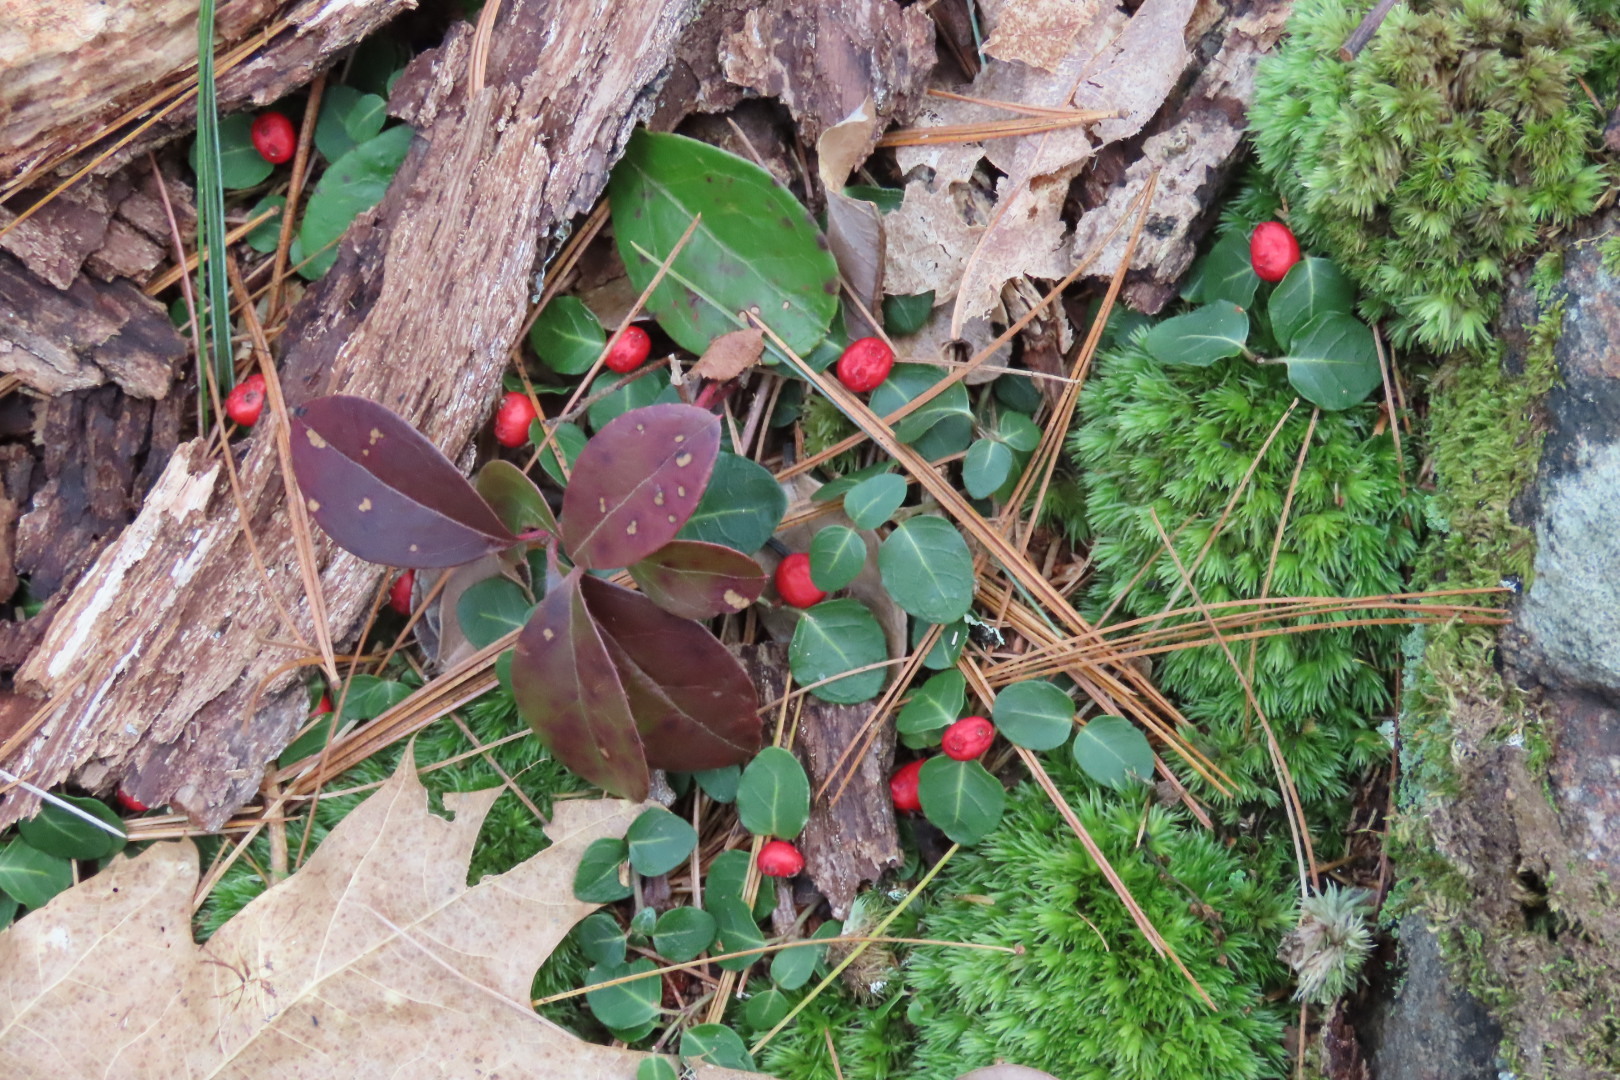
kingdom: Plantae
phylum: Tracheophyta
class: Magnoliopsida
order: Gentianales
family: Rubiaceae
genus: Mitchella
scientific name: Mitchella repens
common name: Partridge-berry
